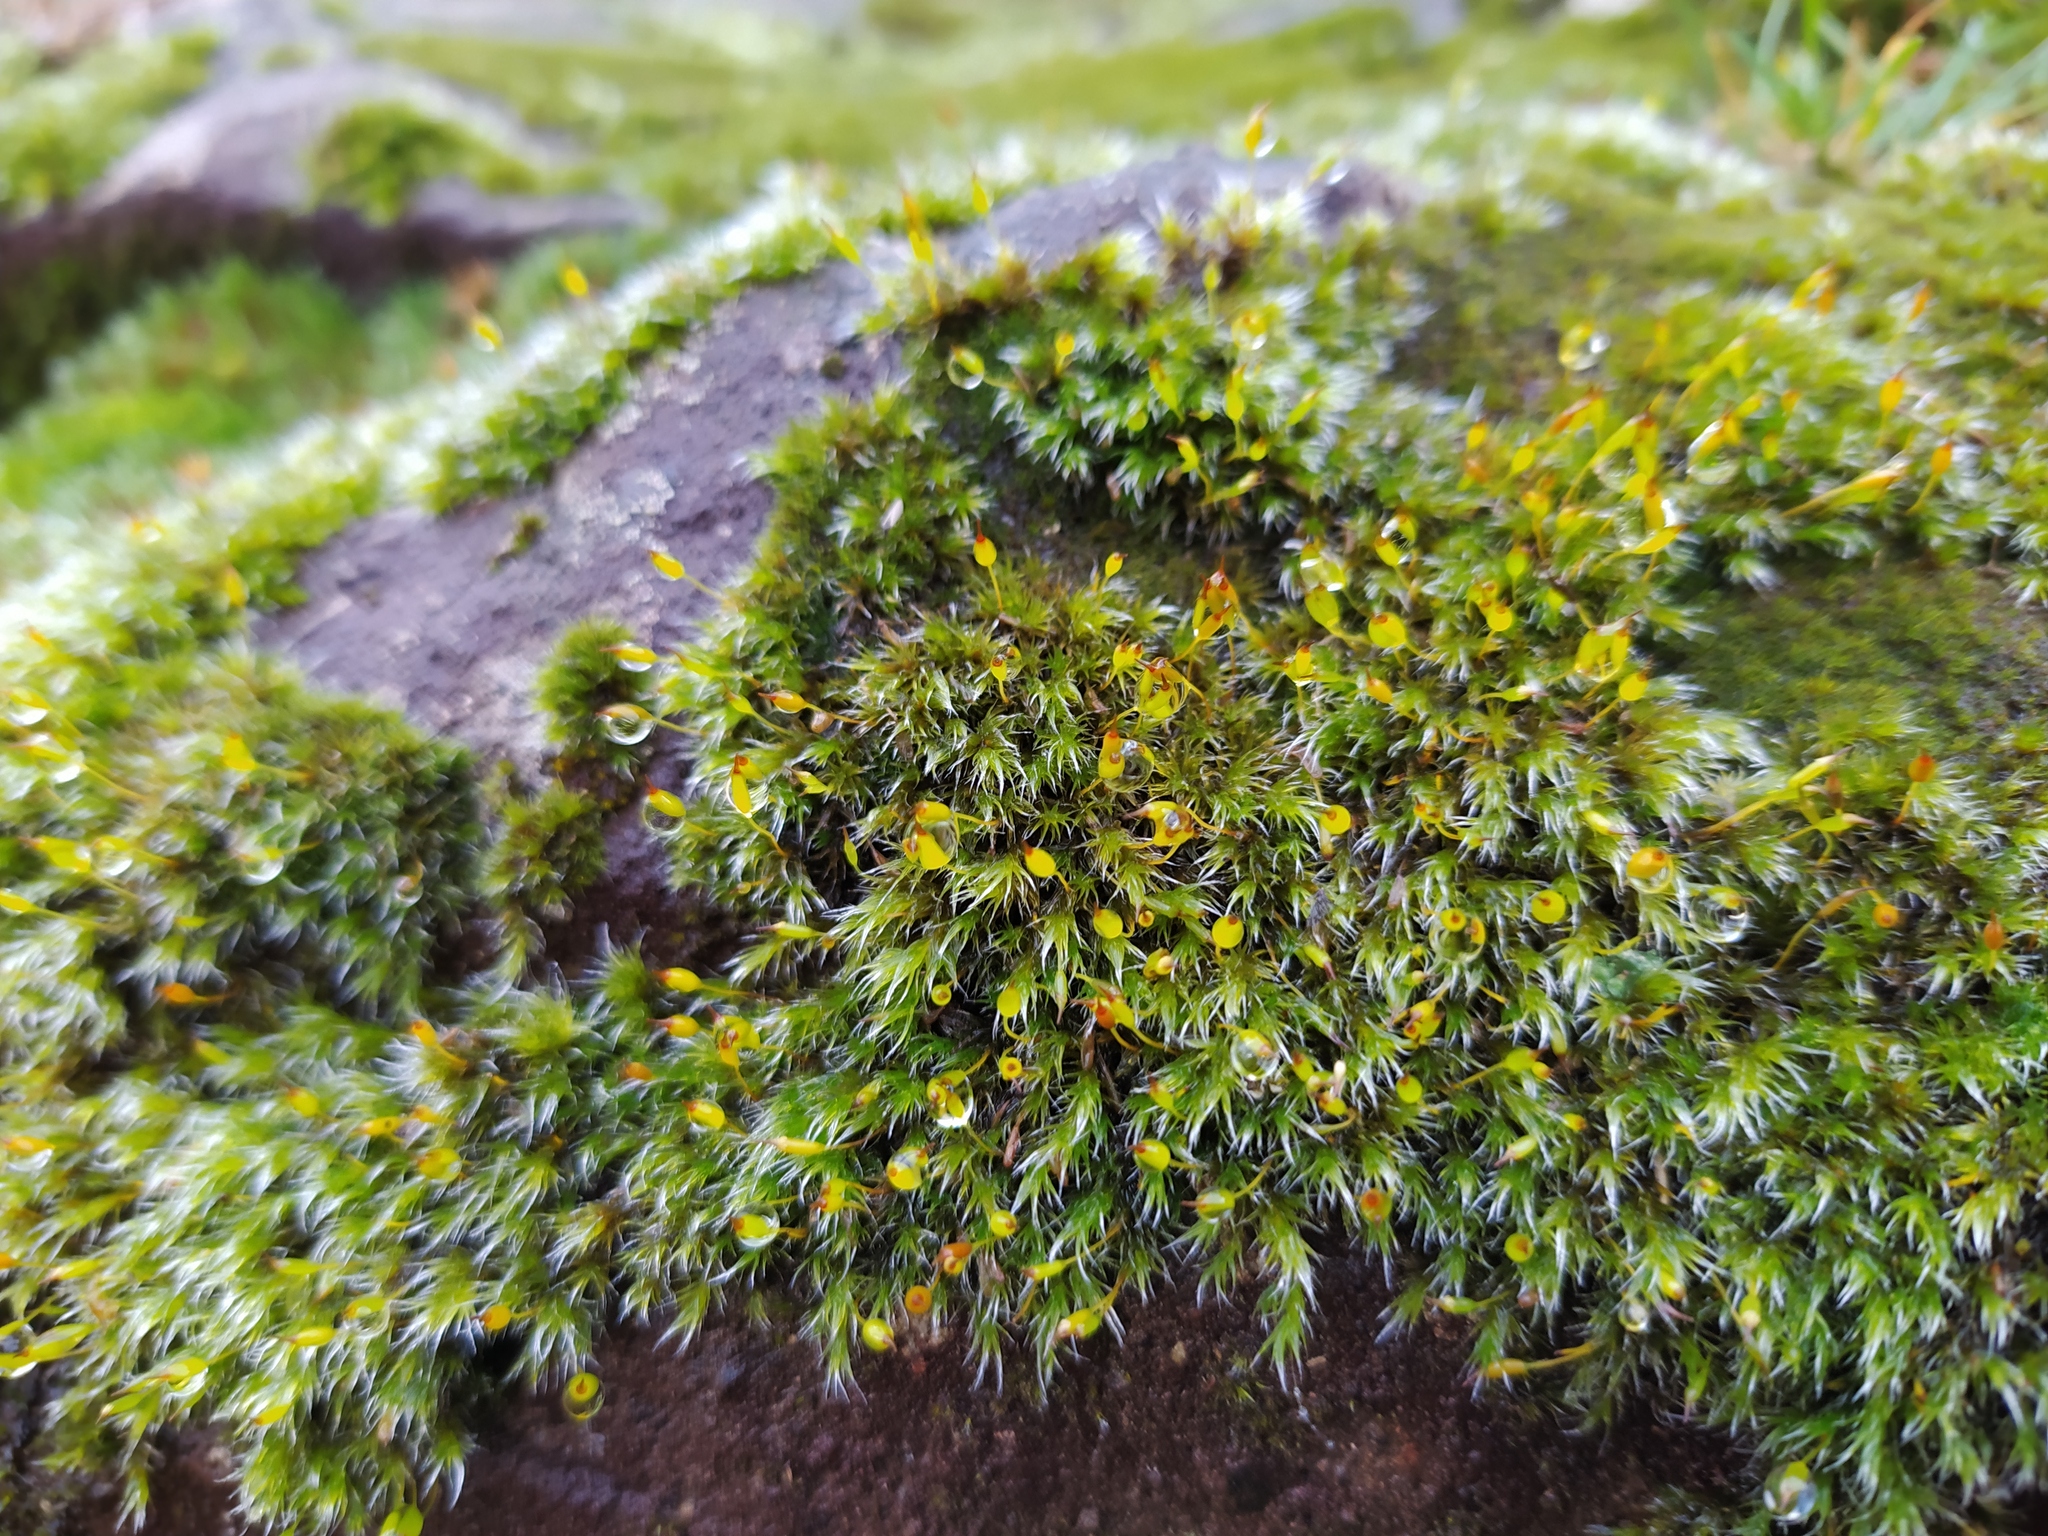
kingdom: Plantae
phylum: Bryophyta
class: Bryopsida
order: Grimmiales
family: Grimmiaceae
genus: Bucklandiella
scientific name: Bucklandiella heterosticha
